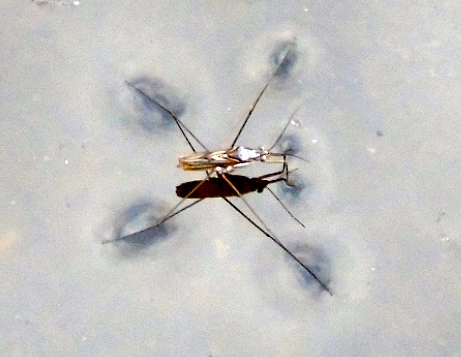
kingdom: Animalia
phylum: Arthropoda
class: Insecta
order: Hemiptera
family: Gerridae
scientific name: Gerridae
